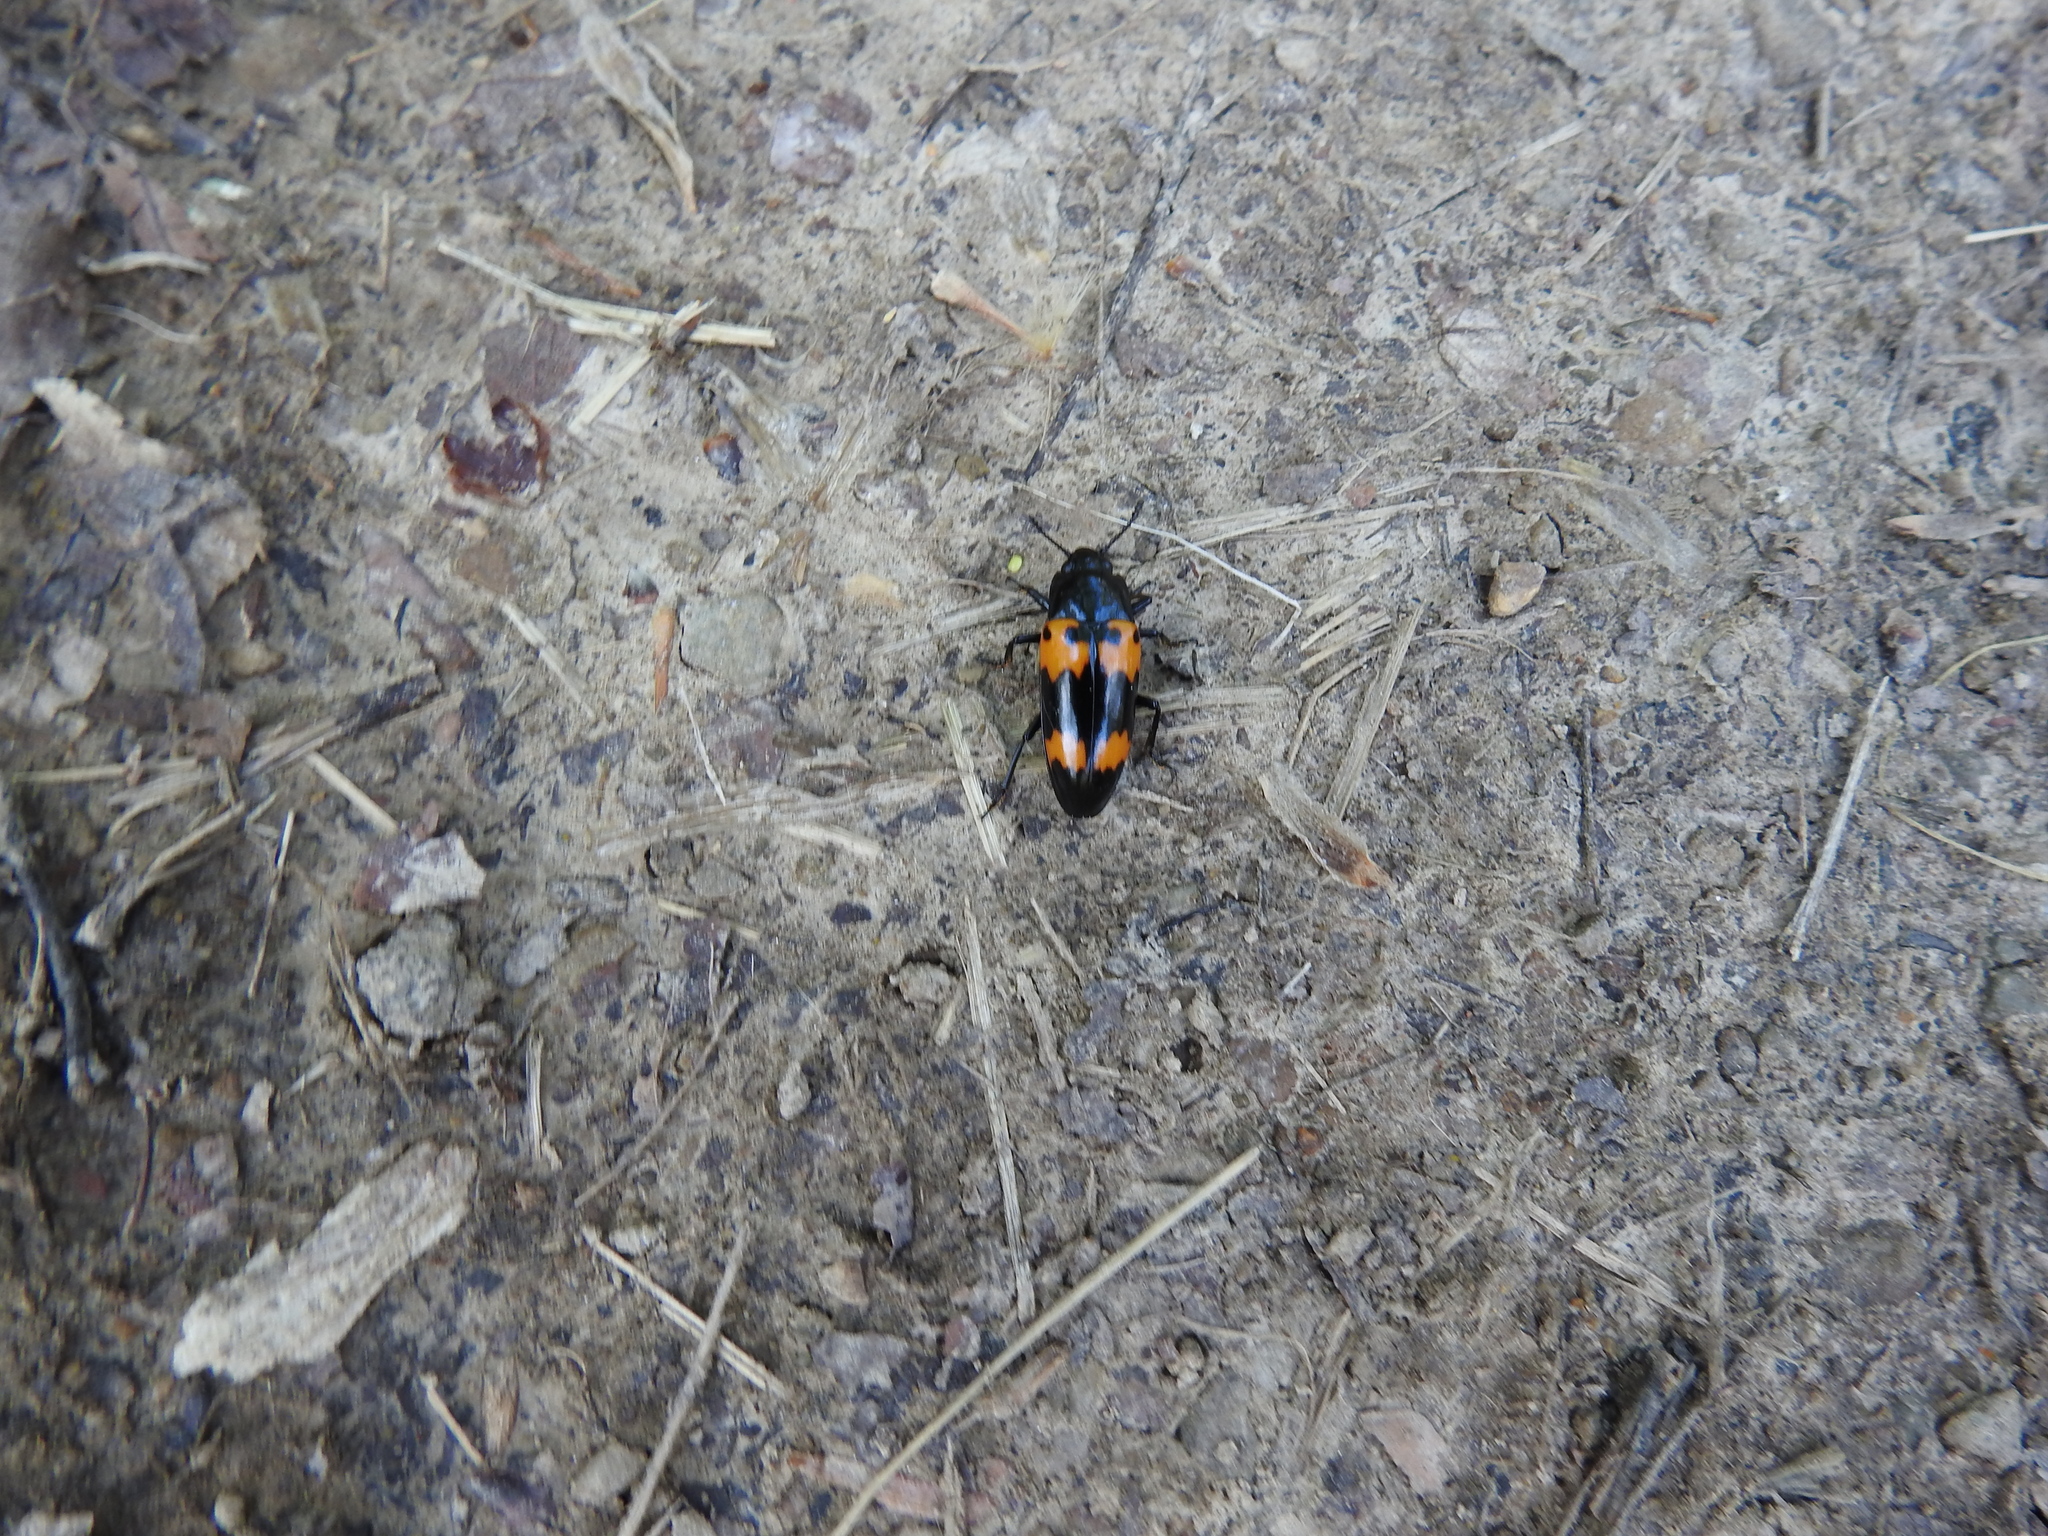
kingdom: Animalia
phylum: Arthropoda
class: Insecta
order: Coleoptera
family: Erotylidae
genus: Megalodacne
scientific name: Megalodacne heros
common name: Pleasing fungus beetle
